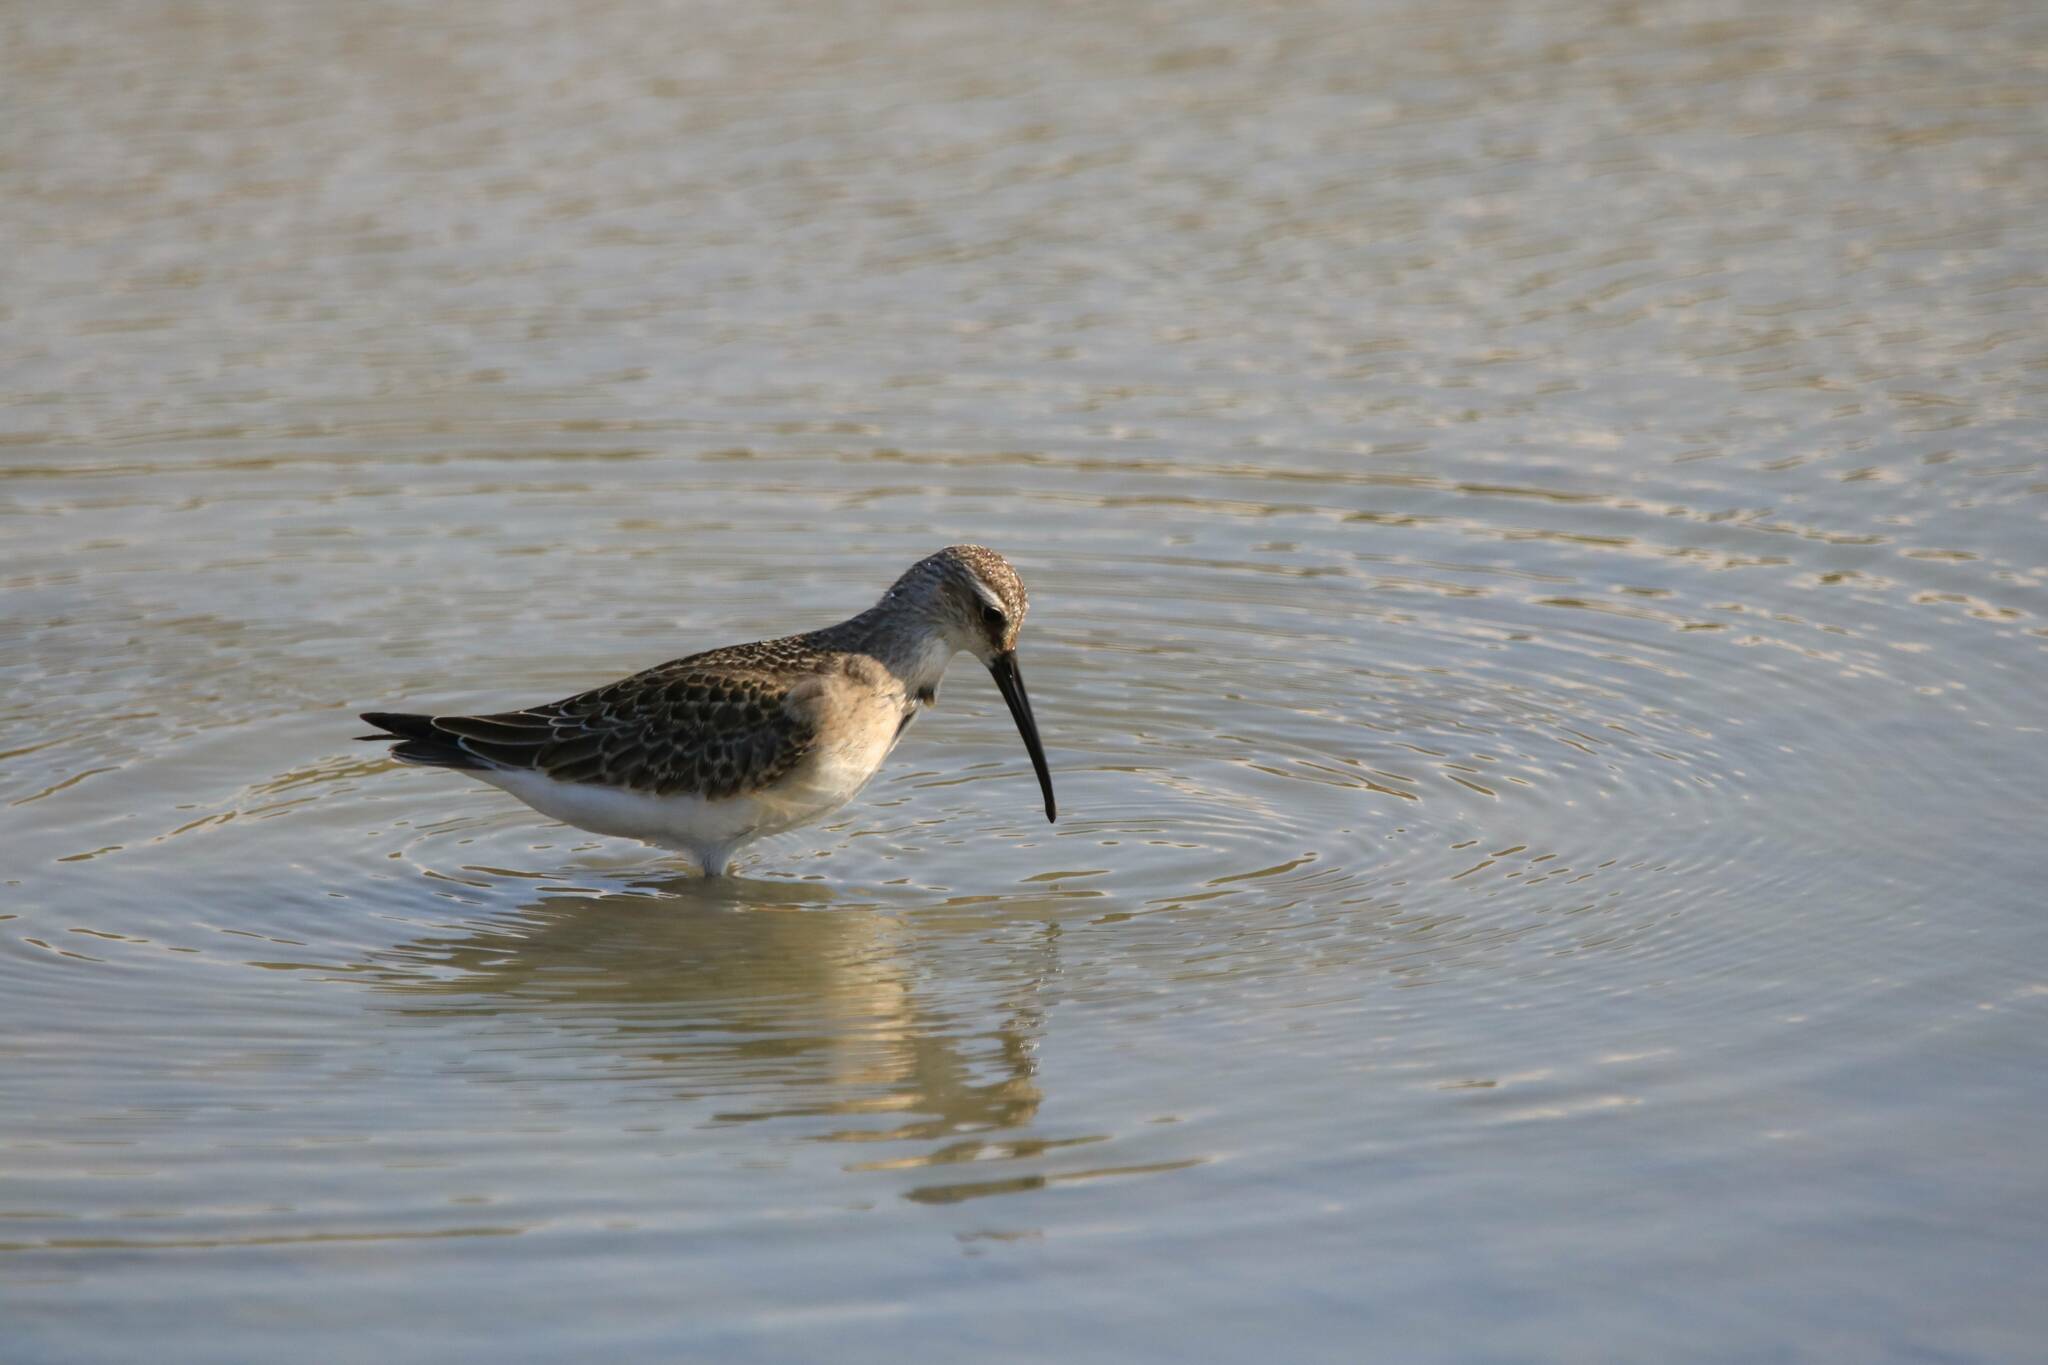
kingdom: Animalia
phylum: Chordata
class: Aves
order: Charadriiformes
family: Scolopacidae
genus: Calidris
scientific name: Calidris ferruginea
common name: Curlew sandpiper
